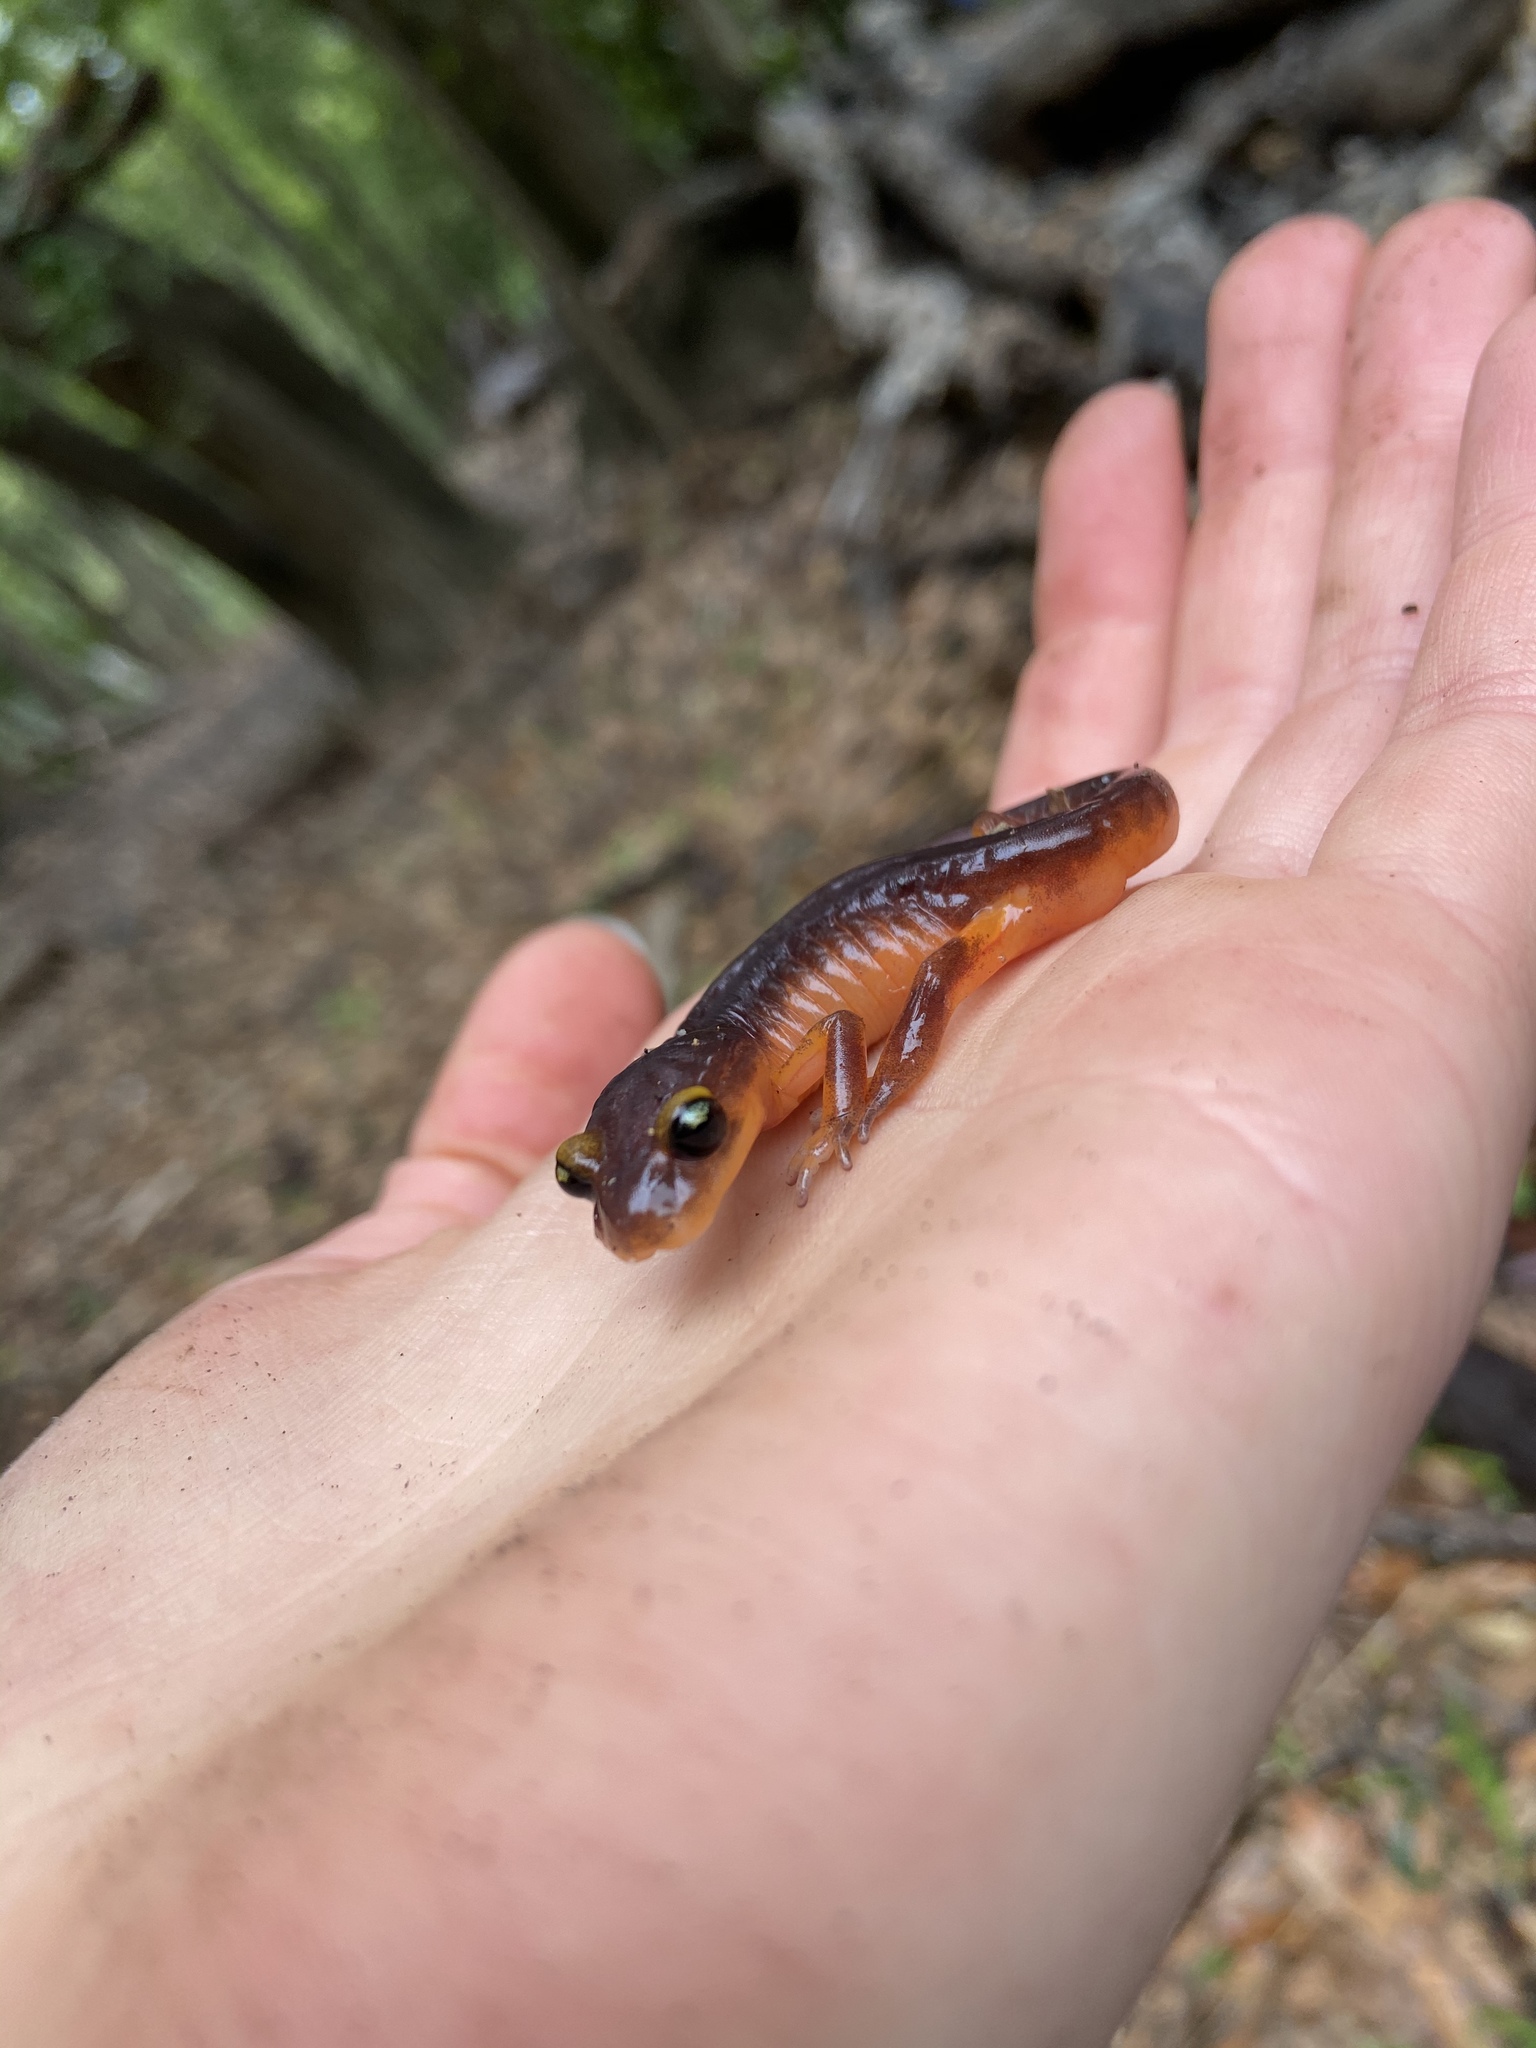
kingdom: Animalia
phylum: Chordata
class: Amphibia
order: Caudata
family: Plethodontidae
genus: Ensatina
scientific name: Ensatina eschscholtzii
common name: Ensatina
